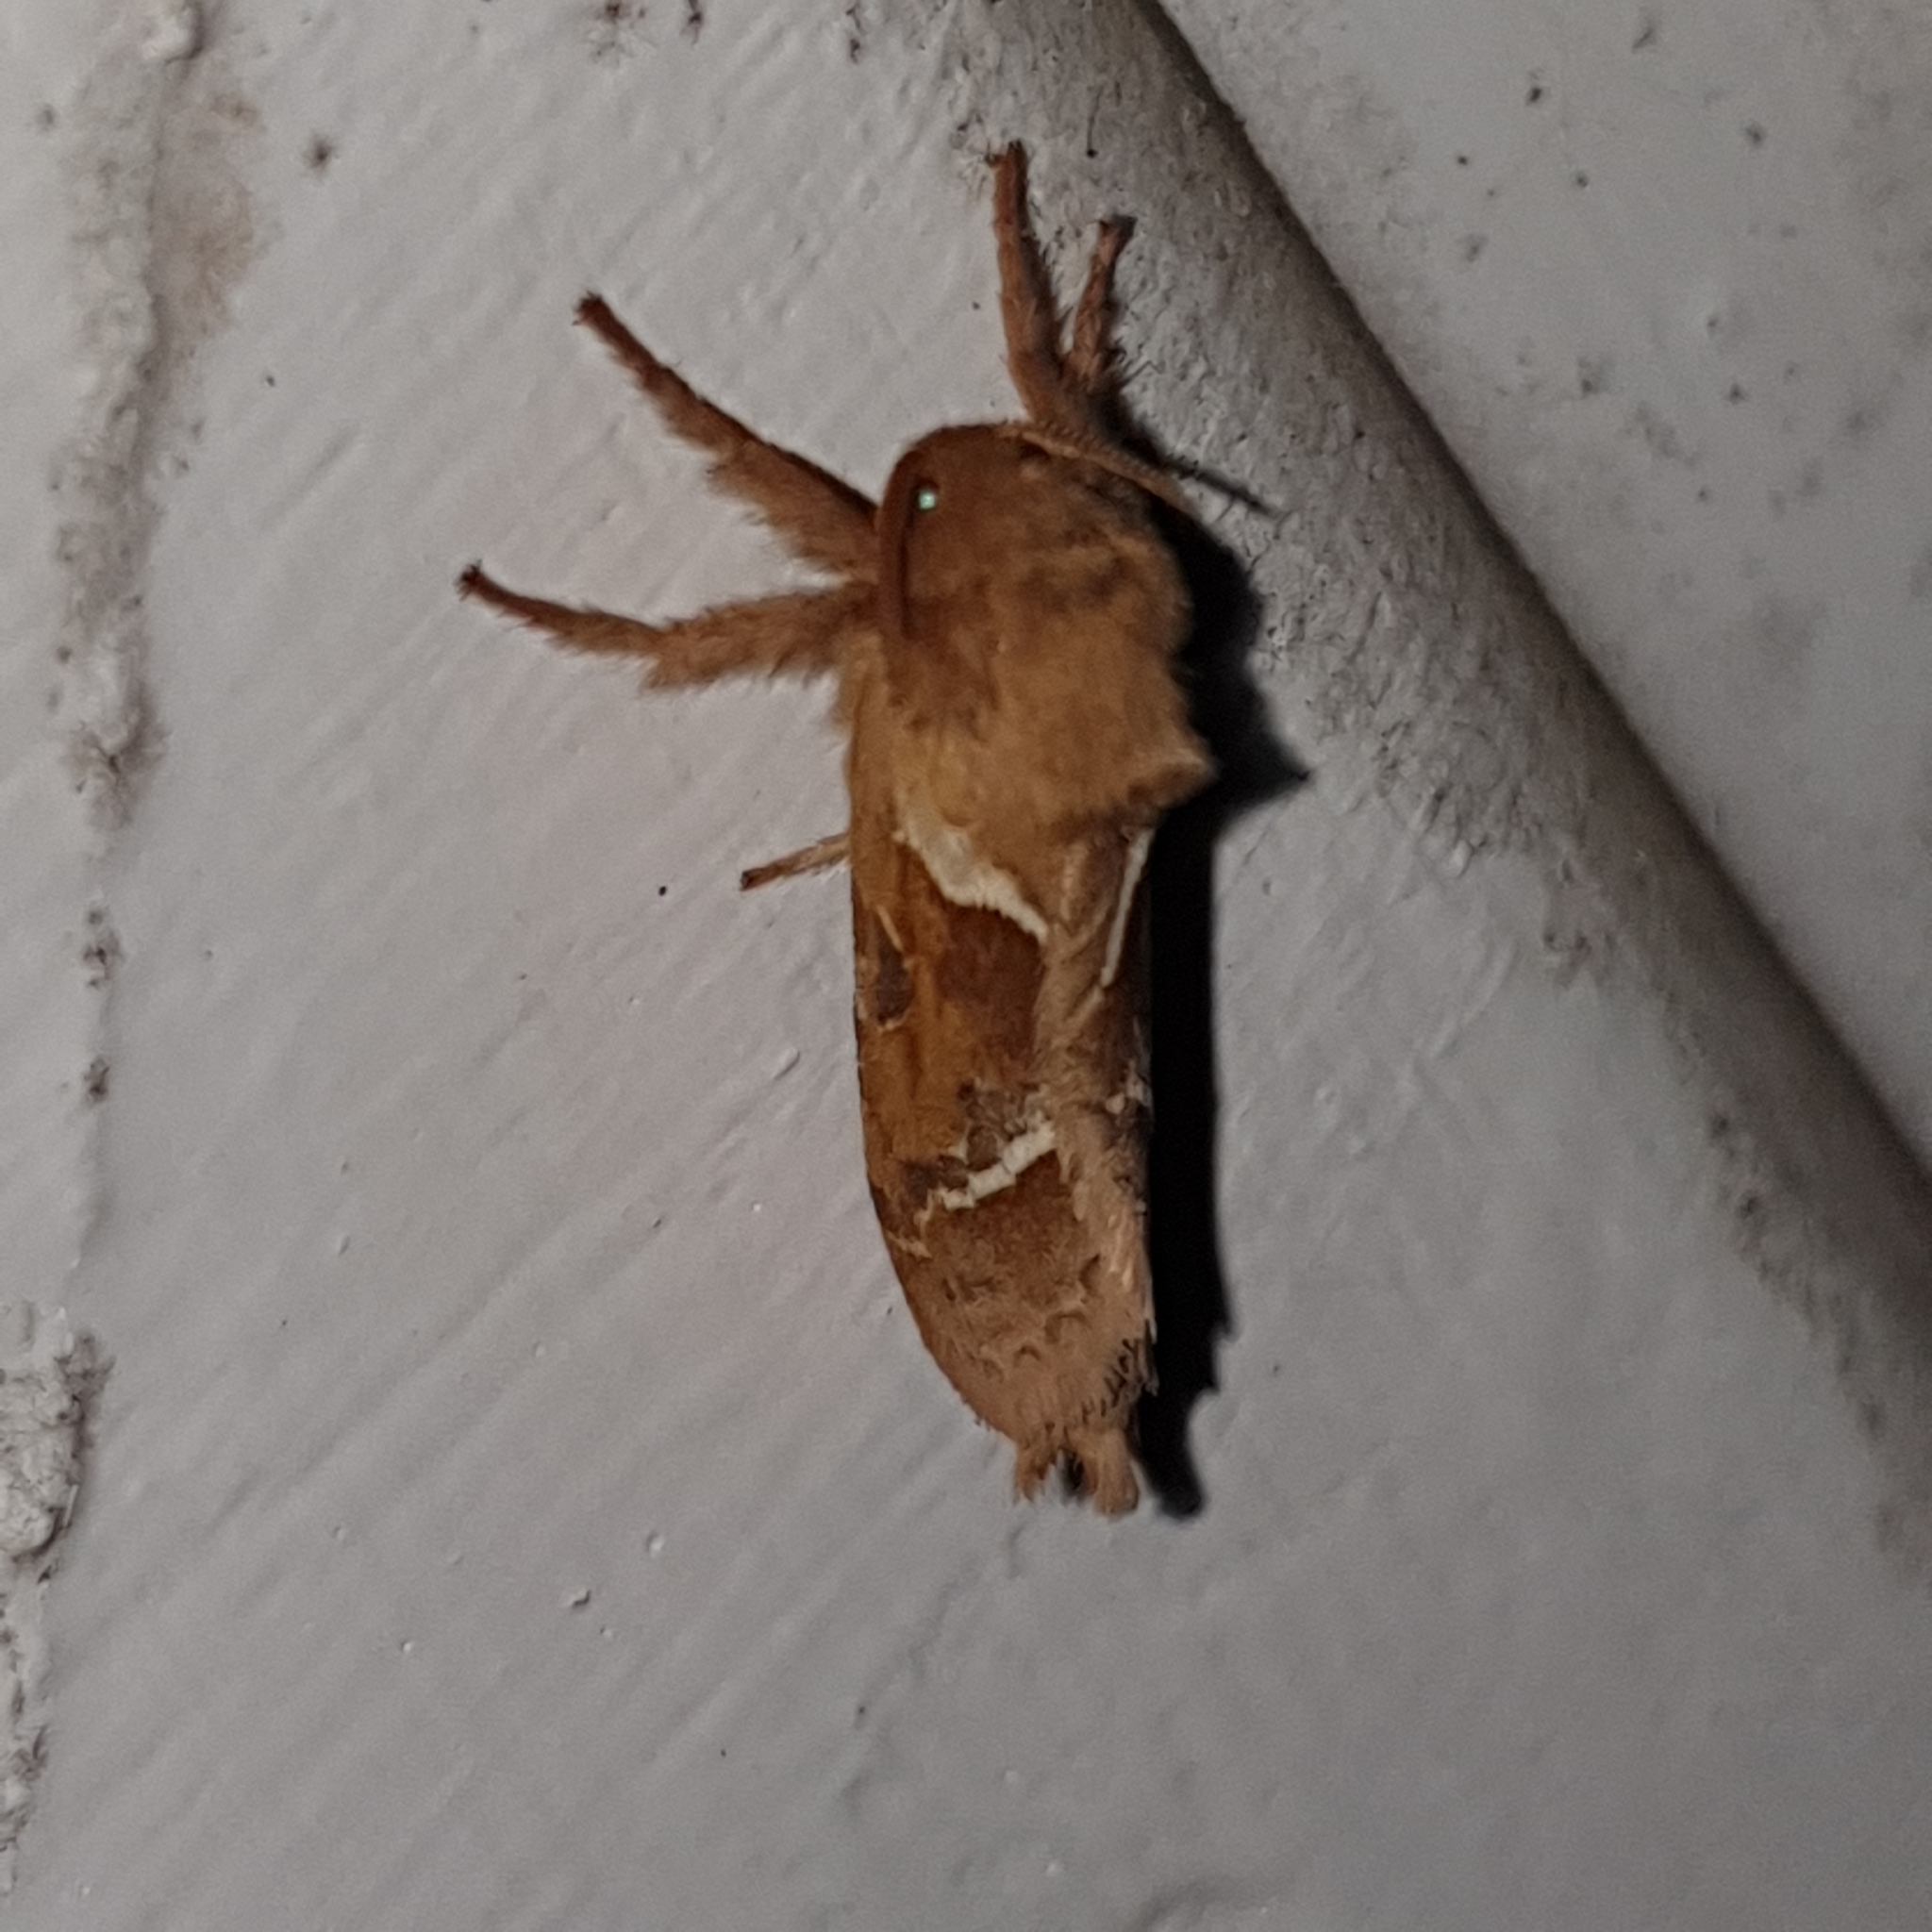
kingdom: Animalia
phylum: Arthropoda
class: Insecta
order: Lepidoptera
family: Hepialidae
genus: Triodia
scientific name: Triodia sylvina
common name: Orange swift
